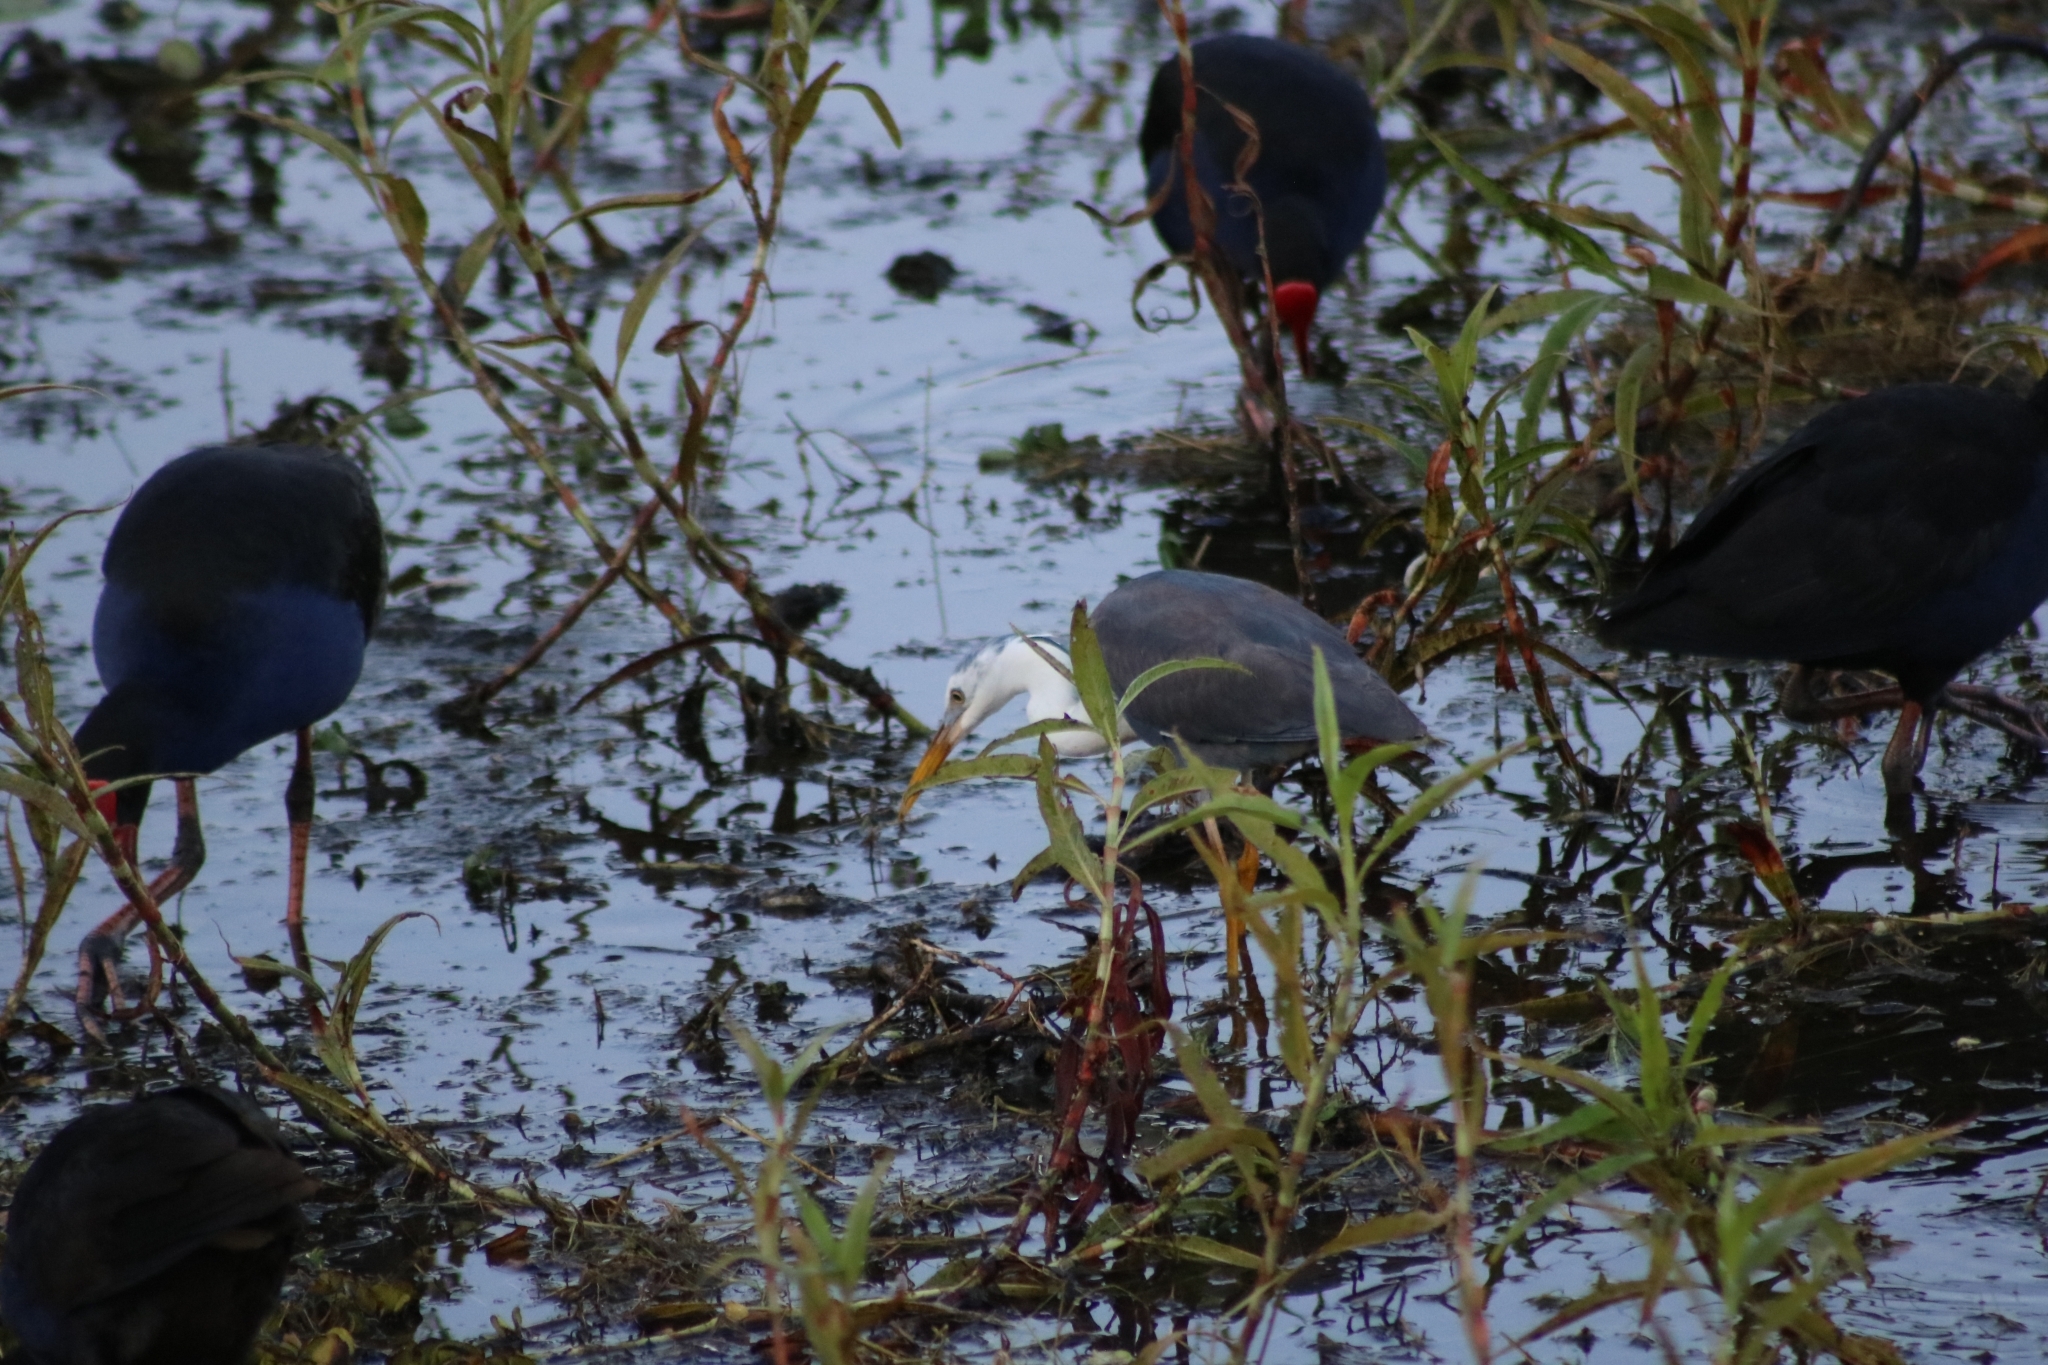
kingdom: Animalia
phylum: Chordata
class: Aves
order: Pelecaniformes
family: Ardeidae
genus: Egretta
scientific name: Egretta picata
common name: Pied heron
